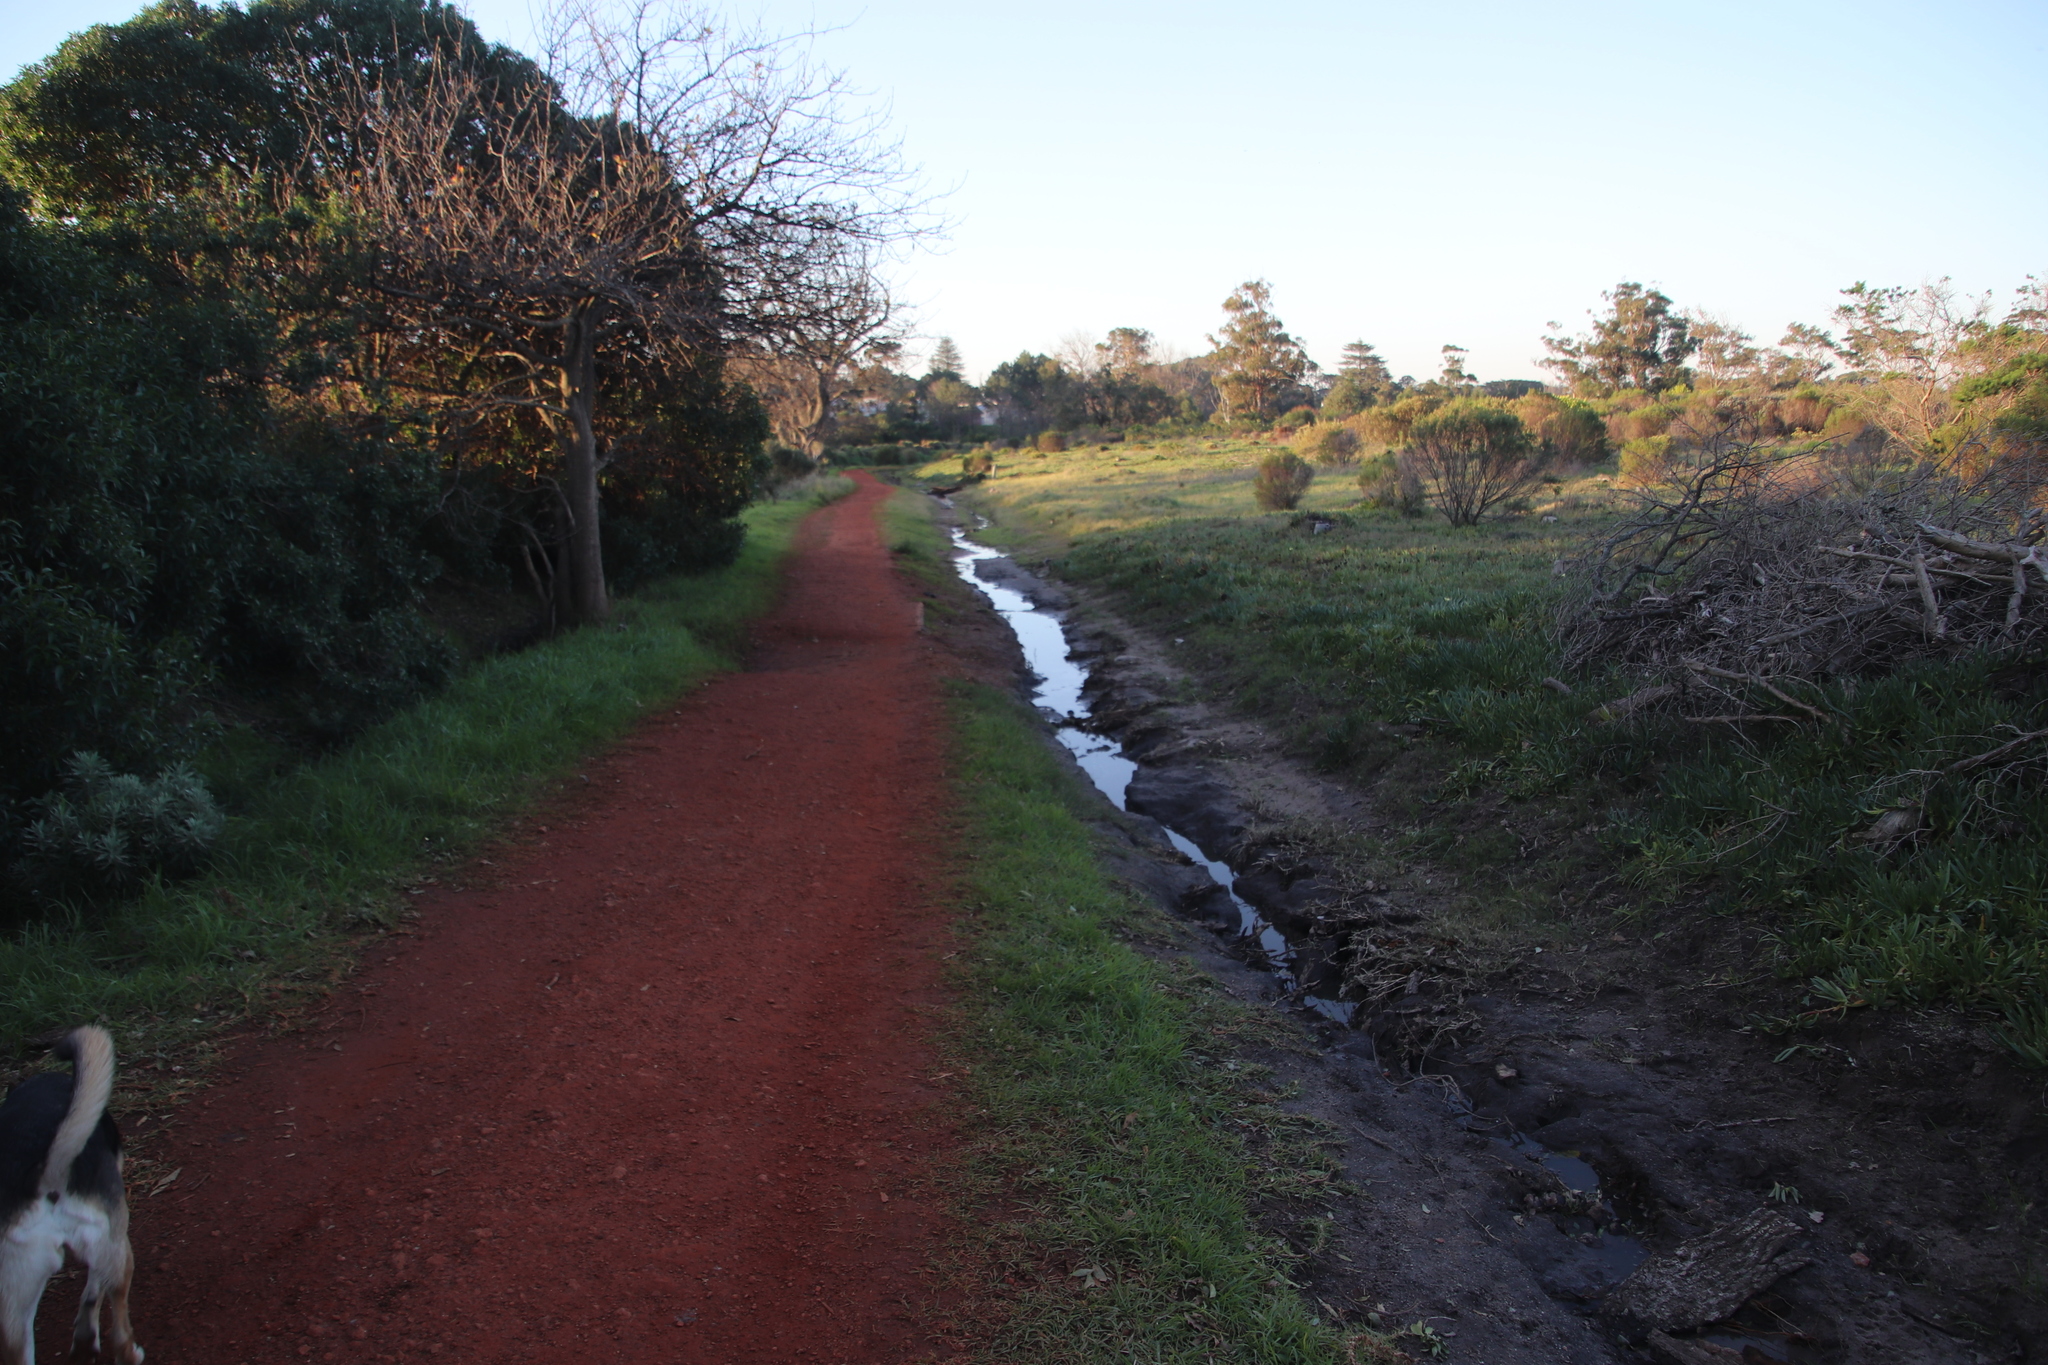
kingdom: Plantae
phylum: Tracheophyta
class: Magnoliopsida
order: Fagales
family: Fagaceae
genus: Quercus
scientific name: Quercus robur
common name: Pedunculate oak
